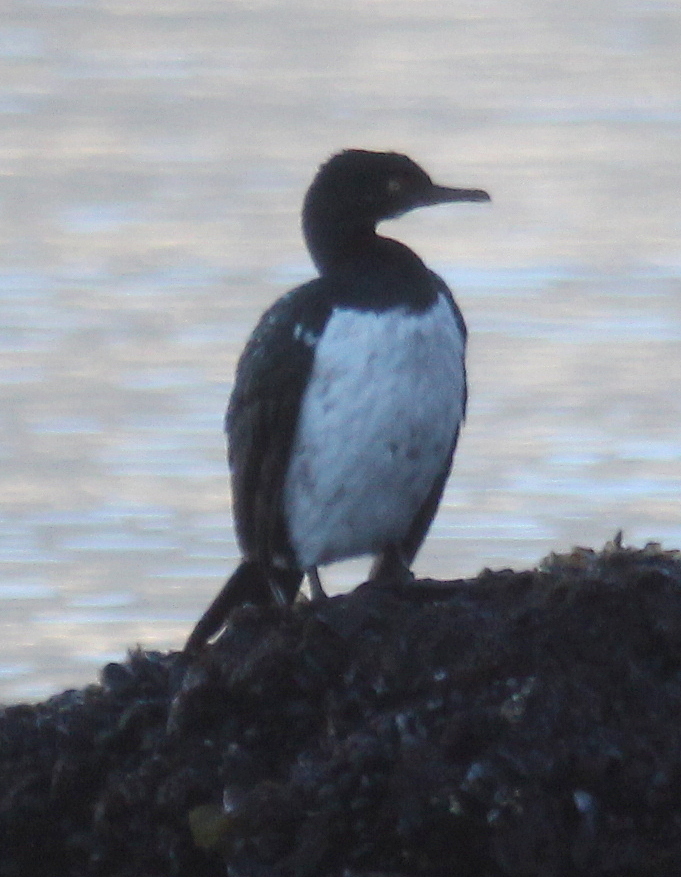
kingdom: Animalia
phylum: Chordata
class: Aves
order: Suliformes
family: Phalacrocoracidae
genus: Phalacrocorax
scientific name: Phalacrocorax magellanicus
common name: Rock shag
